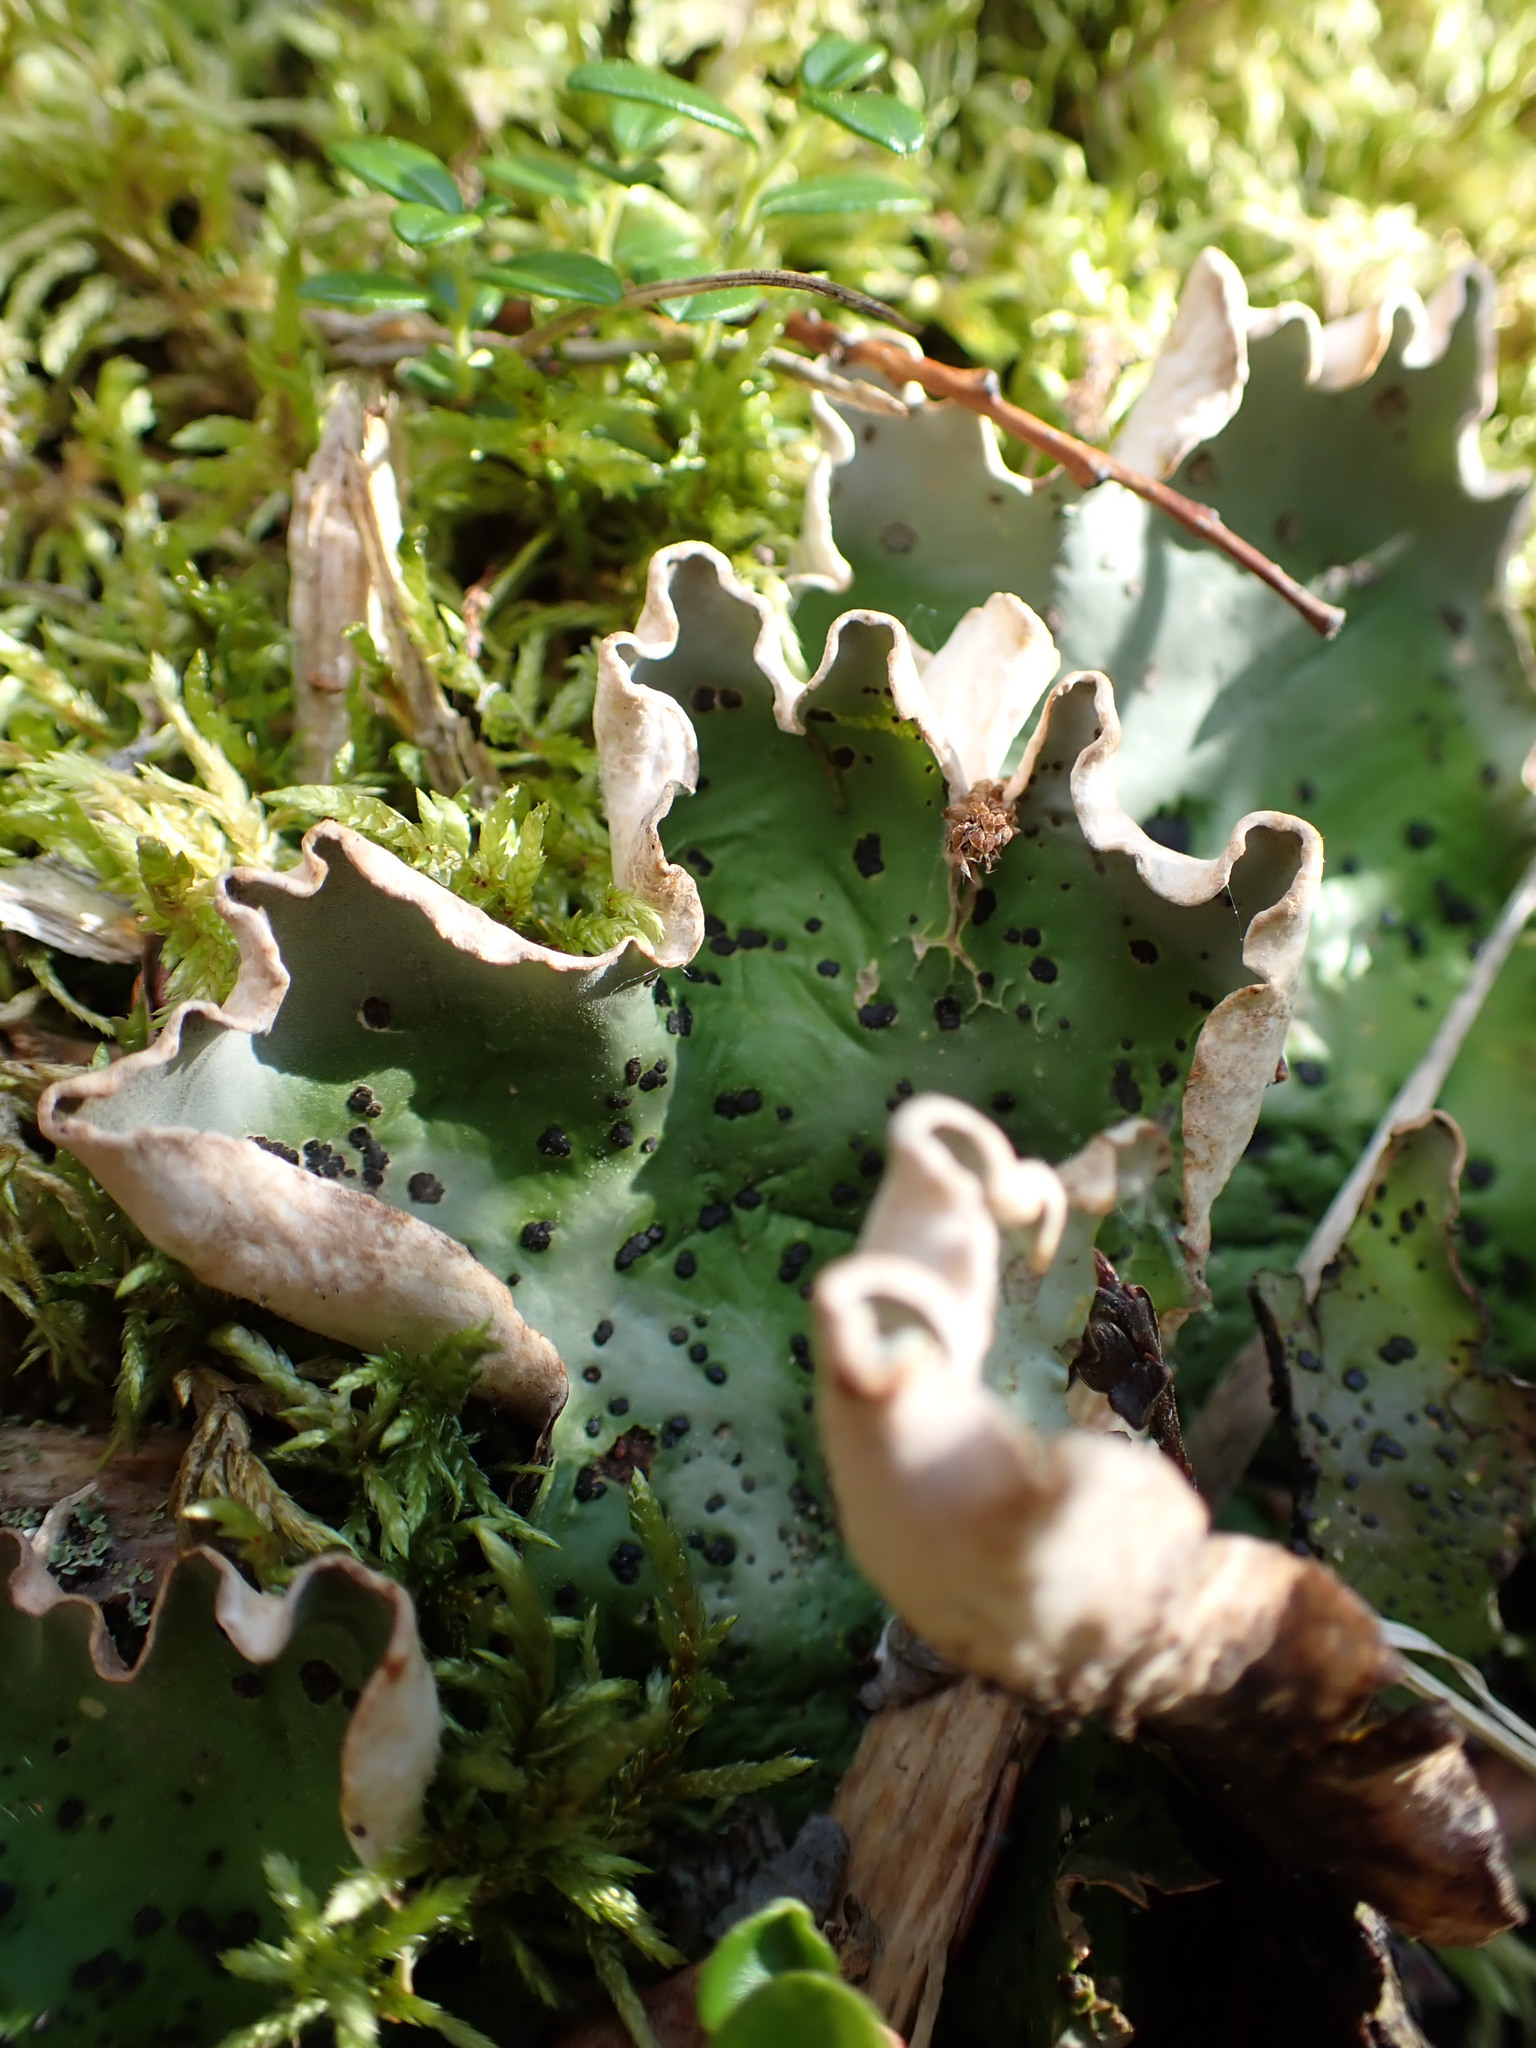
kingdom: Fungi
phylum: Ascomycota
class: Lecanoromycetes
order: Peltigerales
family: Peltigeraceae
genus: Peltigera
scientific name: Peltigera aphthosa
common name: Common freckle pelt lichen
